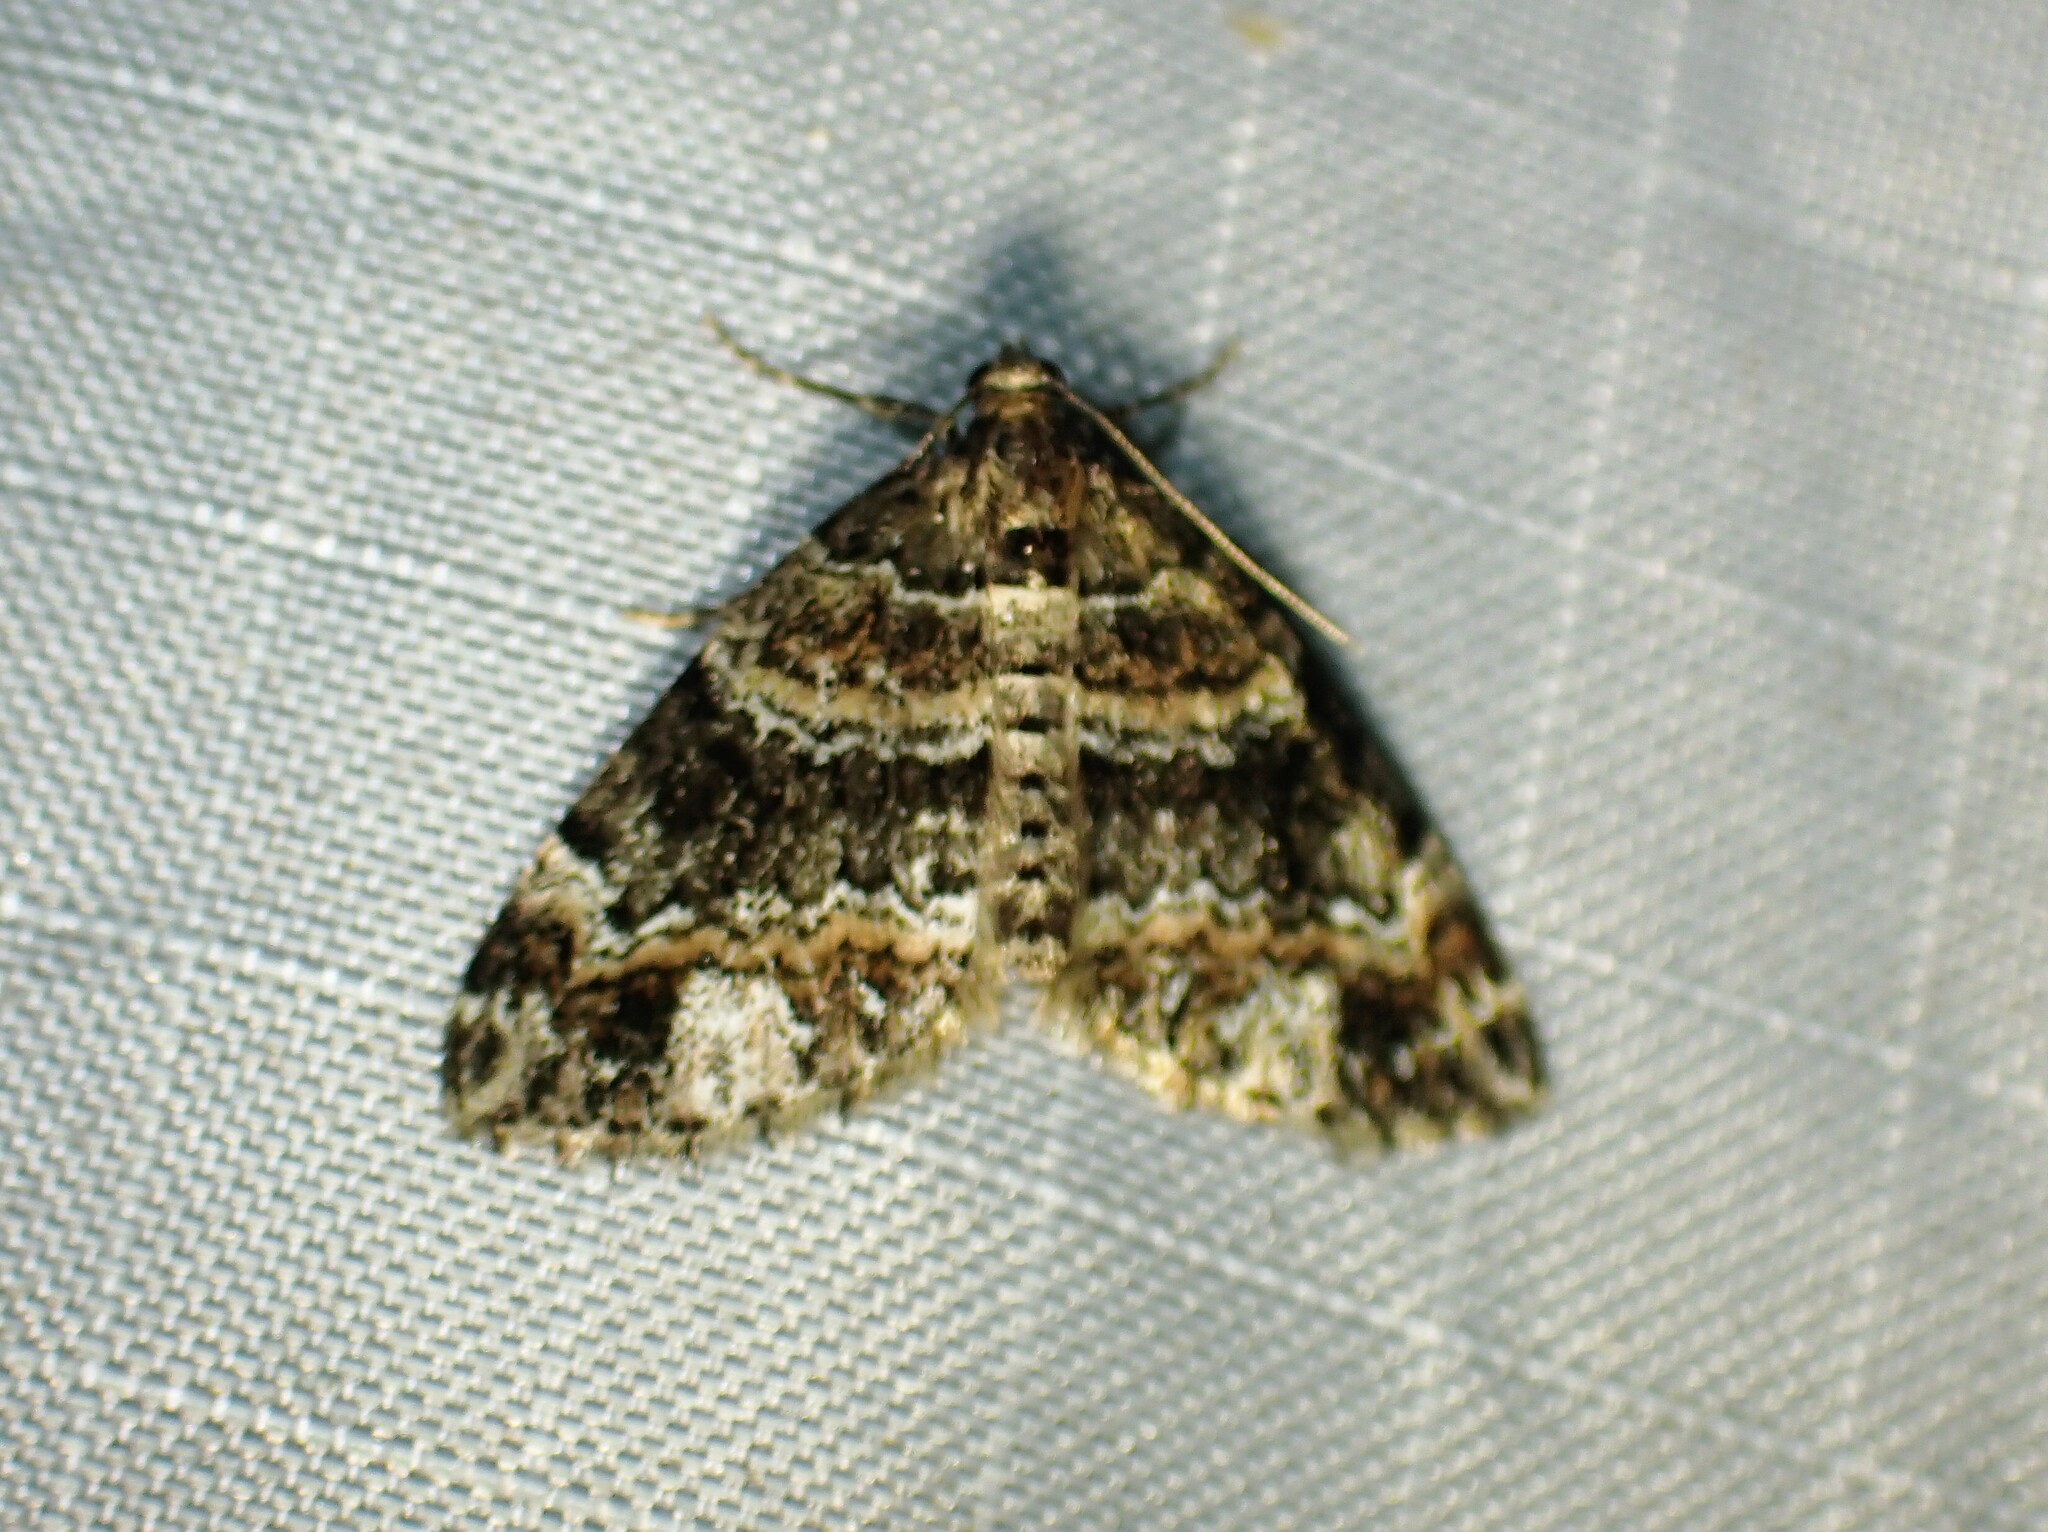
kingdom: Animalia
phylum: Arthropoda
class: Insecta
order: Lepidoptera
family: Geometridae
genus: Martania
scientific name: Martania
